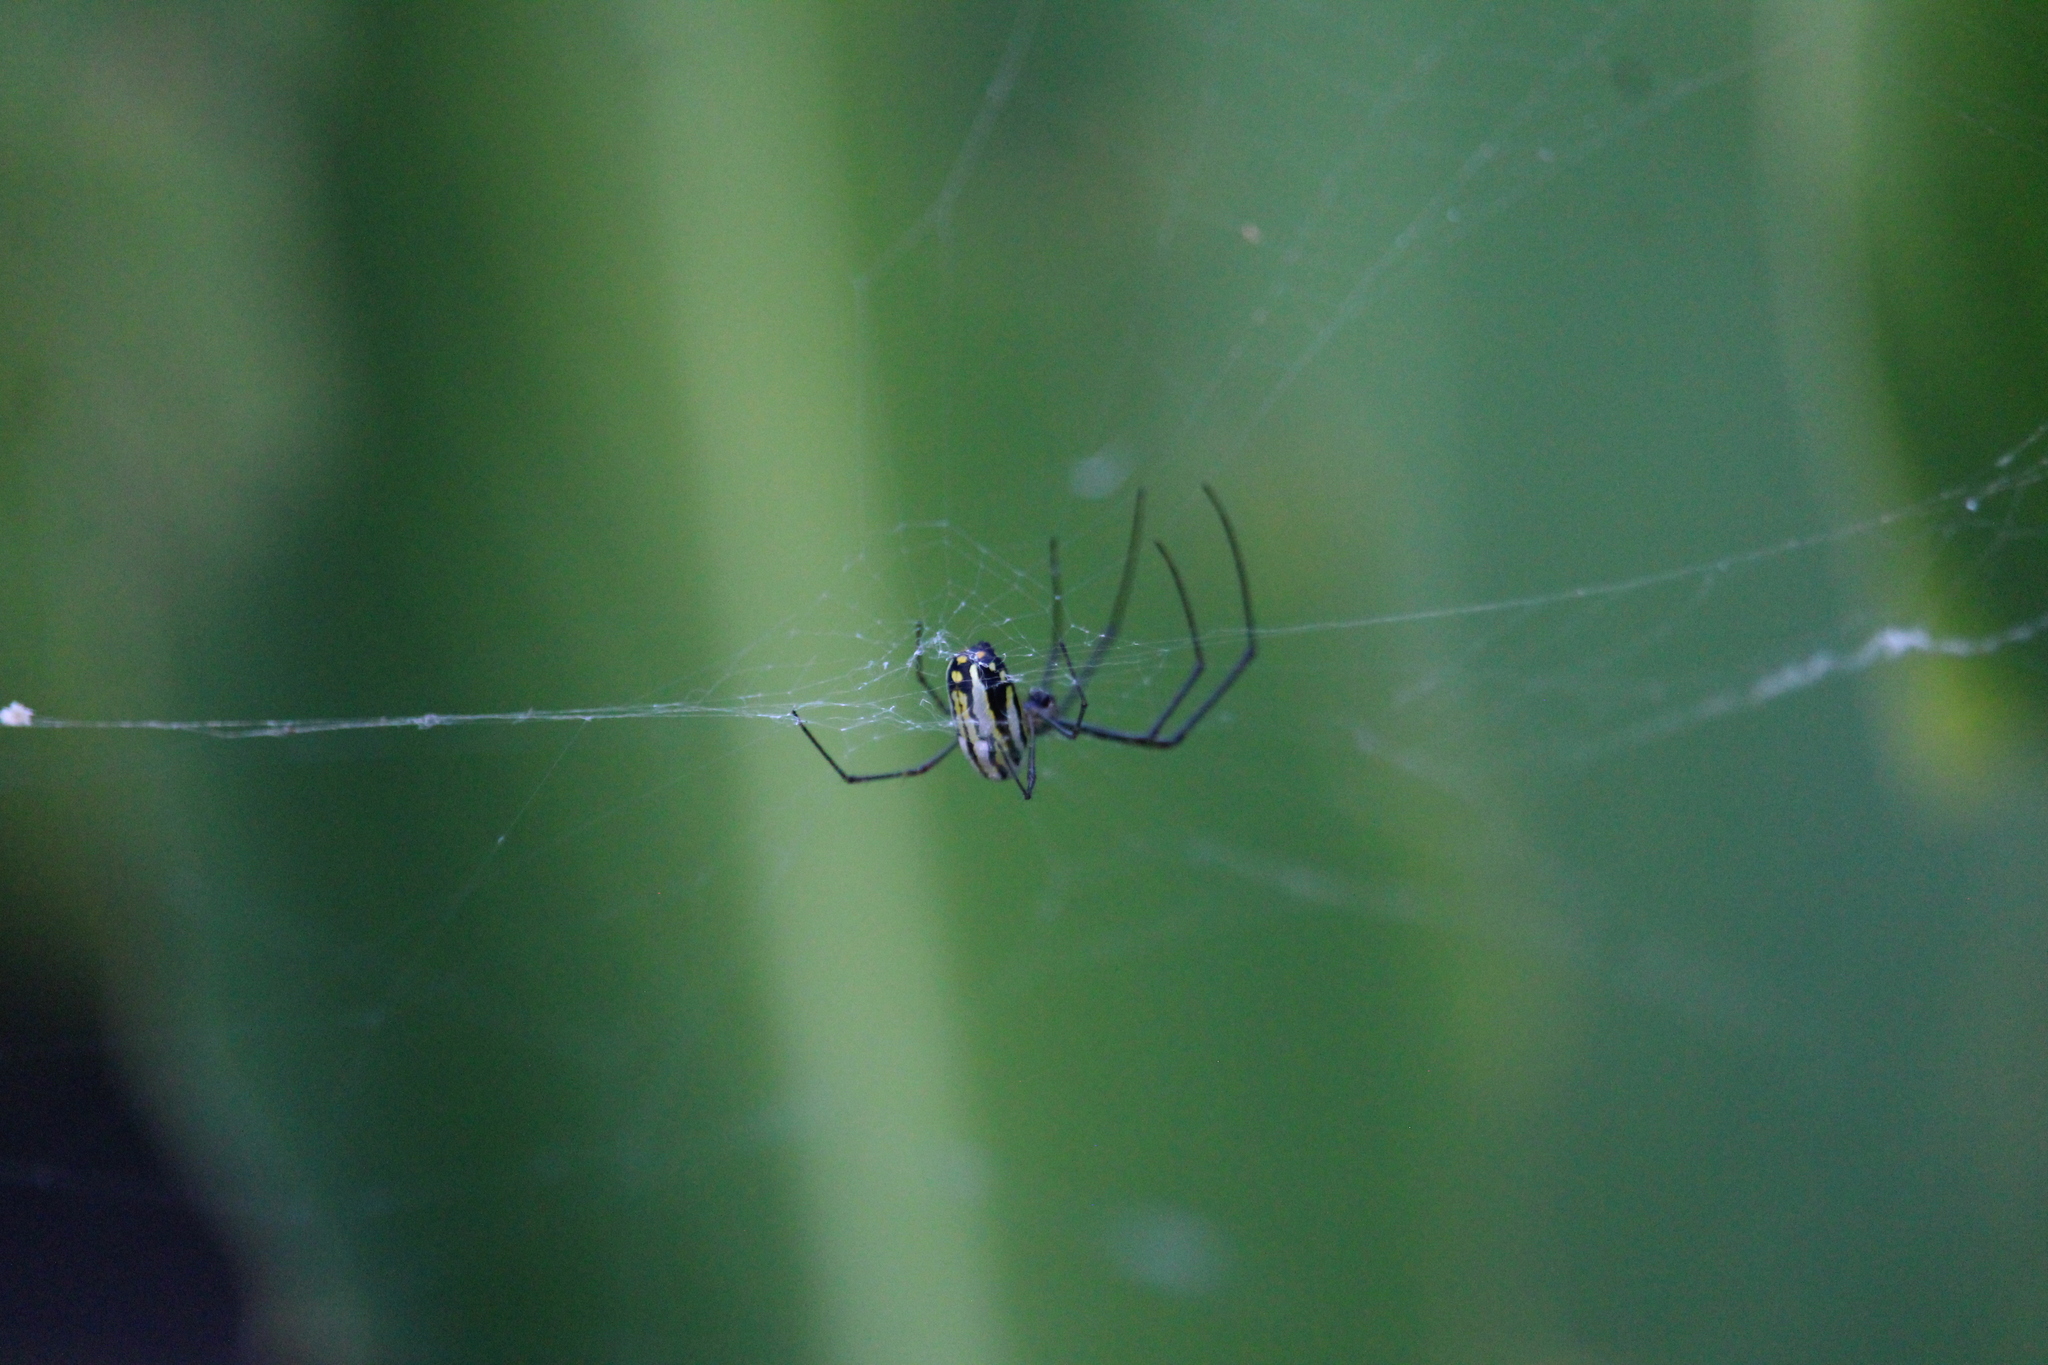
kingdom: Animalia
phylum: Arthropoda
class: Arachnida
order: Araneae
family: Tetragnathidae
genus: Leucauge
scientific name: Leucauge argyra
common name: Longjawed orb weavers
